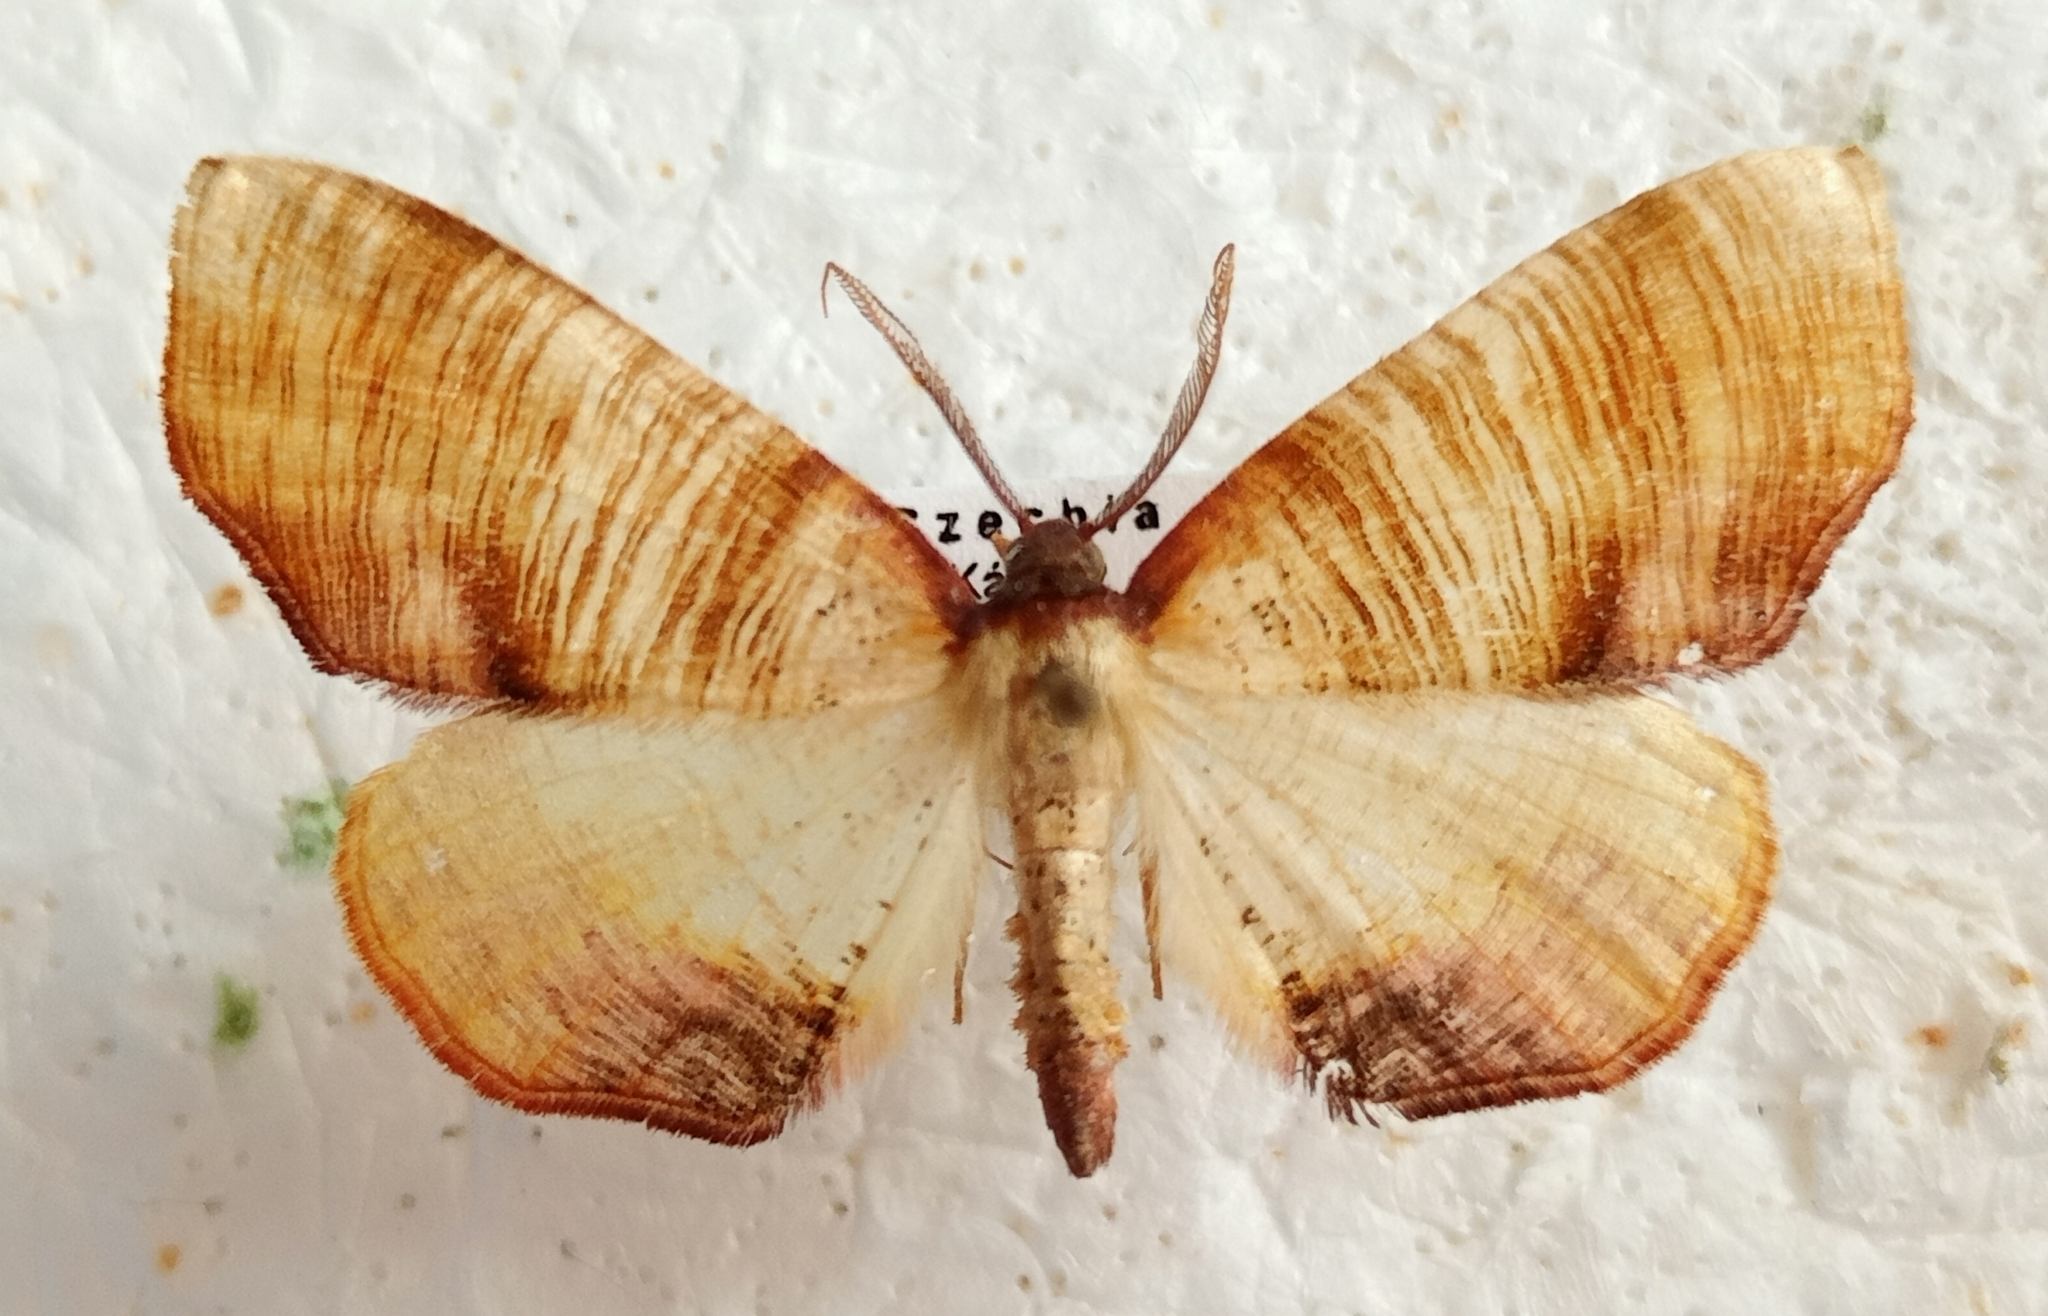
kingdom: Animalia
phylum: Arthropoda
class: Insecta
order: Lepidoptera
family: Geometridae
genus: Plagodis
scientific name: Plagodis dolabraria
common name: Scorched wing
